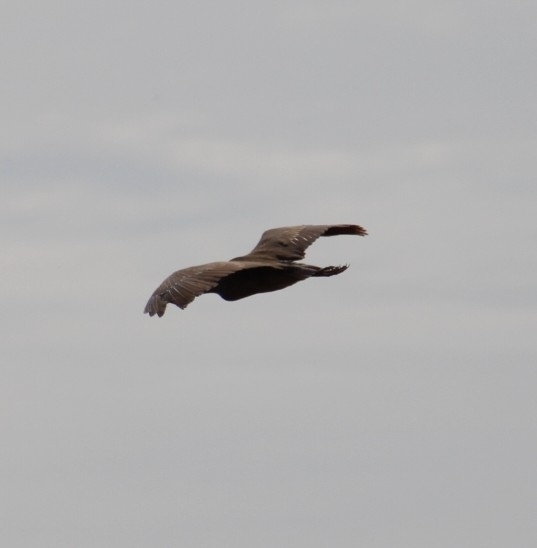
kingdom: Animalia
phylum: Chordata
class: Aves
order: Pelecaniformes
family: Ardeidae
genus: Nycticorax
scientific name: Nycticorax nycticorax
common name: Black-crowned night heron
